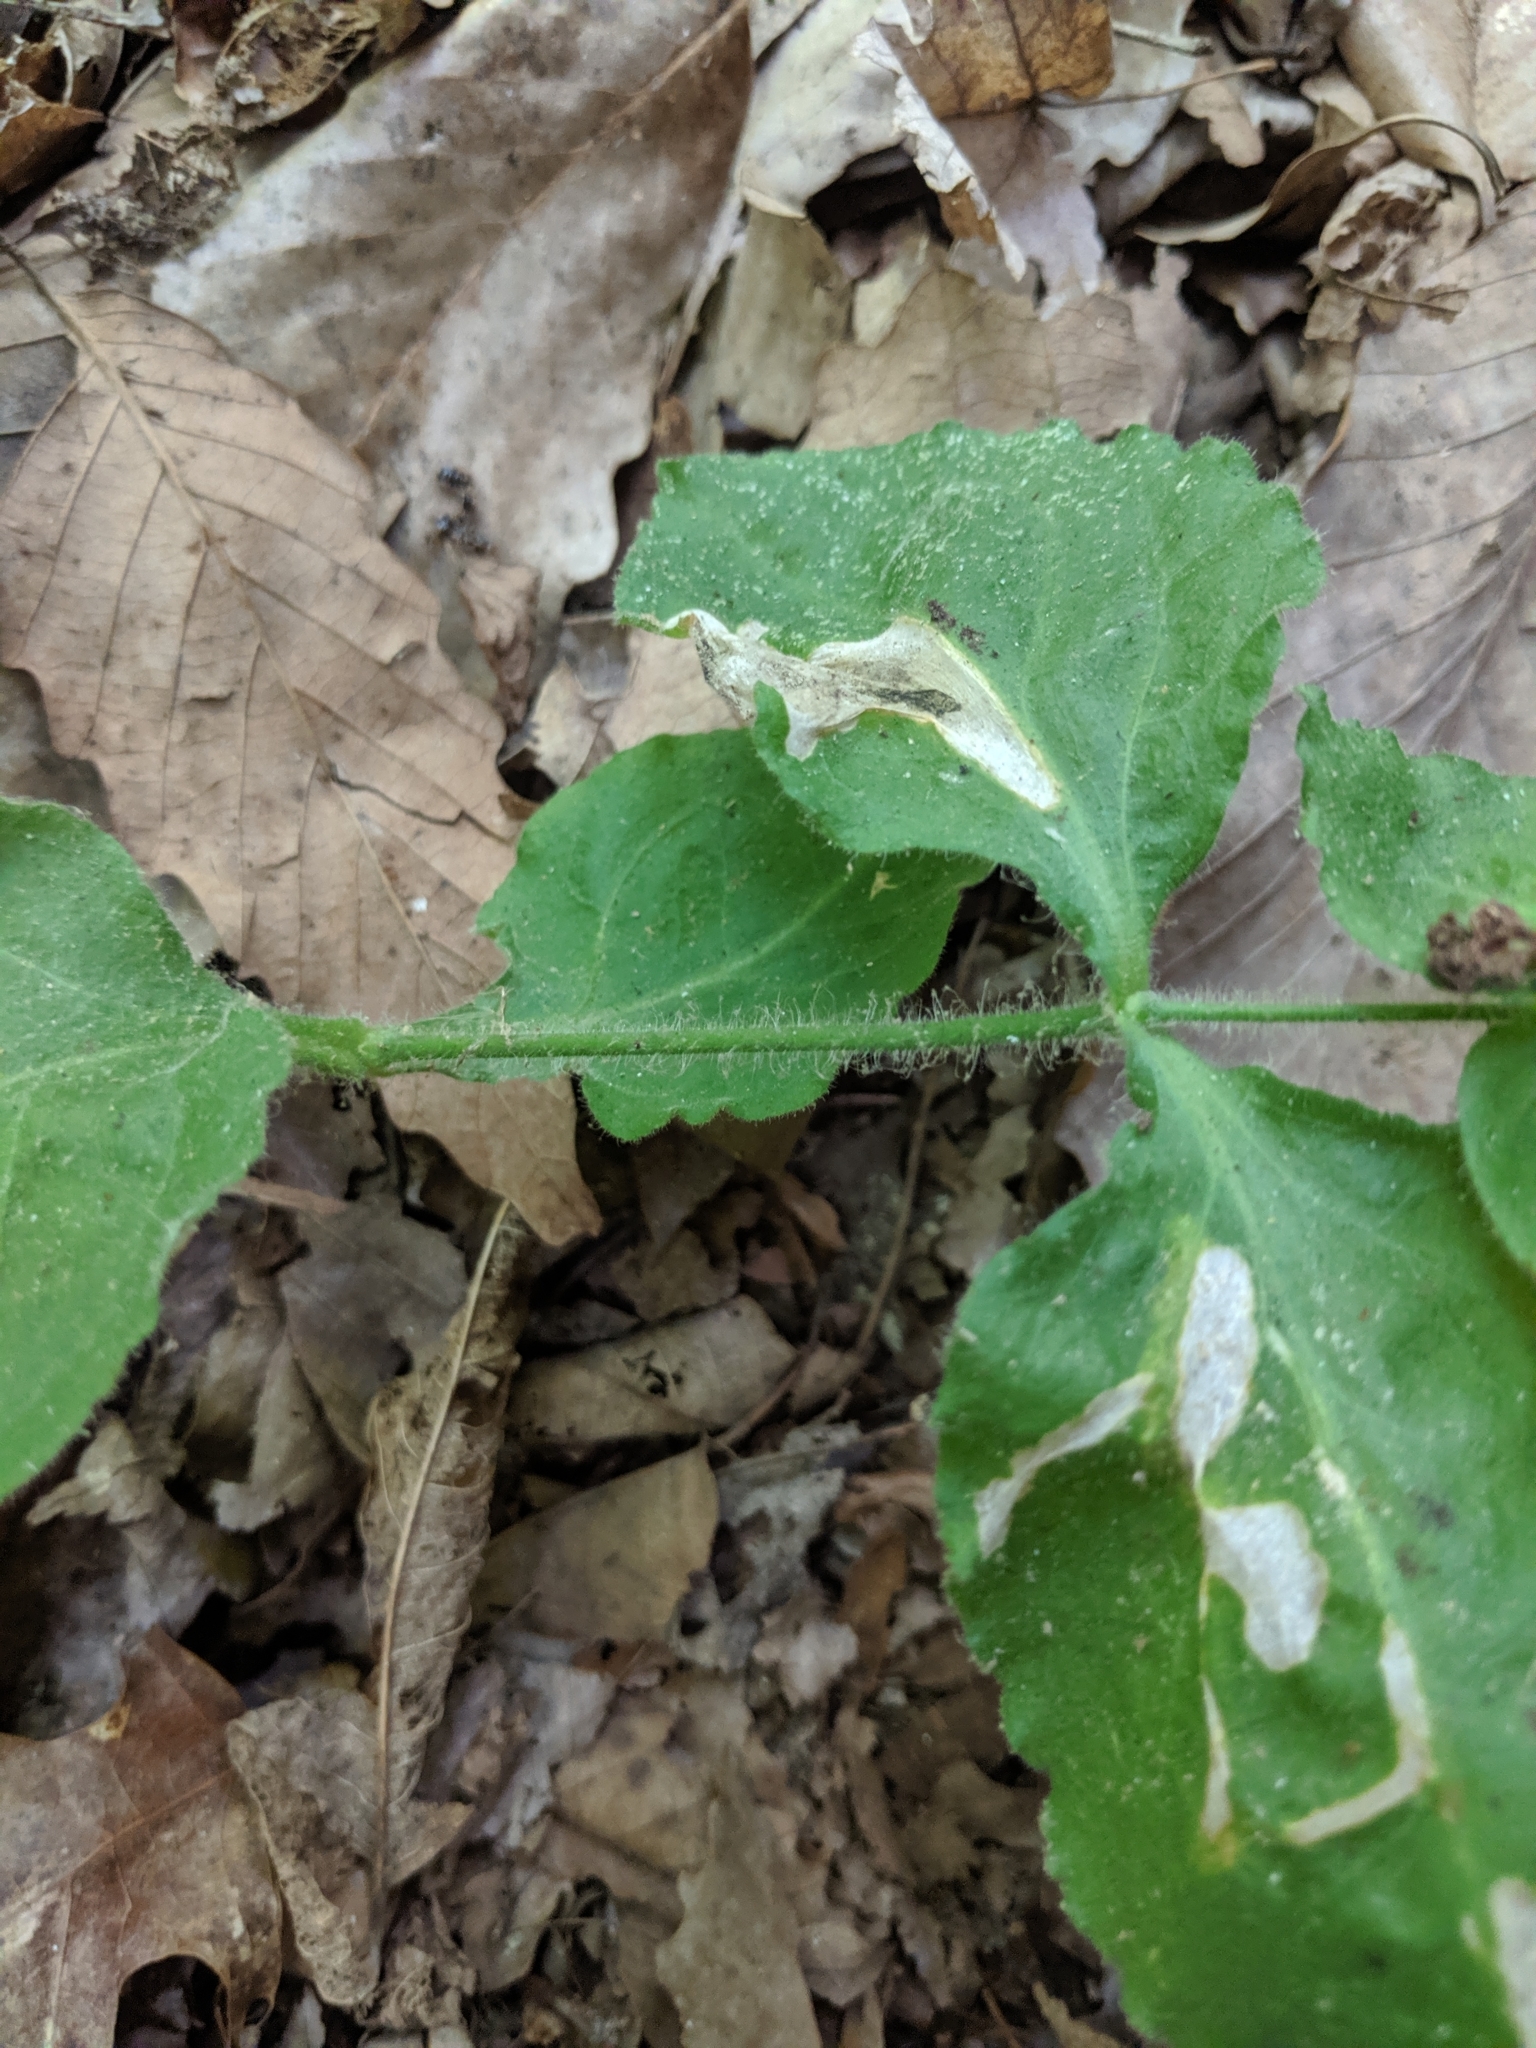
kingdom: Plantae
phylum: Tracheophyta
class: Magnoliopsida
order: Caryophyllales
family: Caryophyllaceae
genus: Silene
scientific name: Silene rotundifolia
